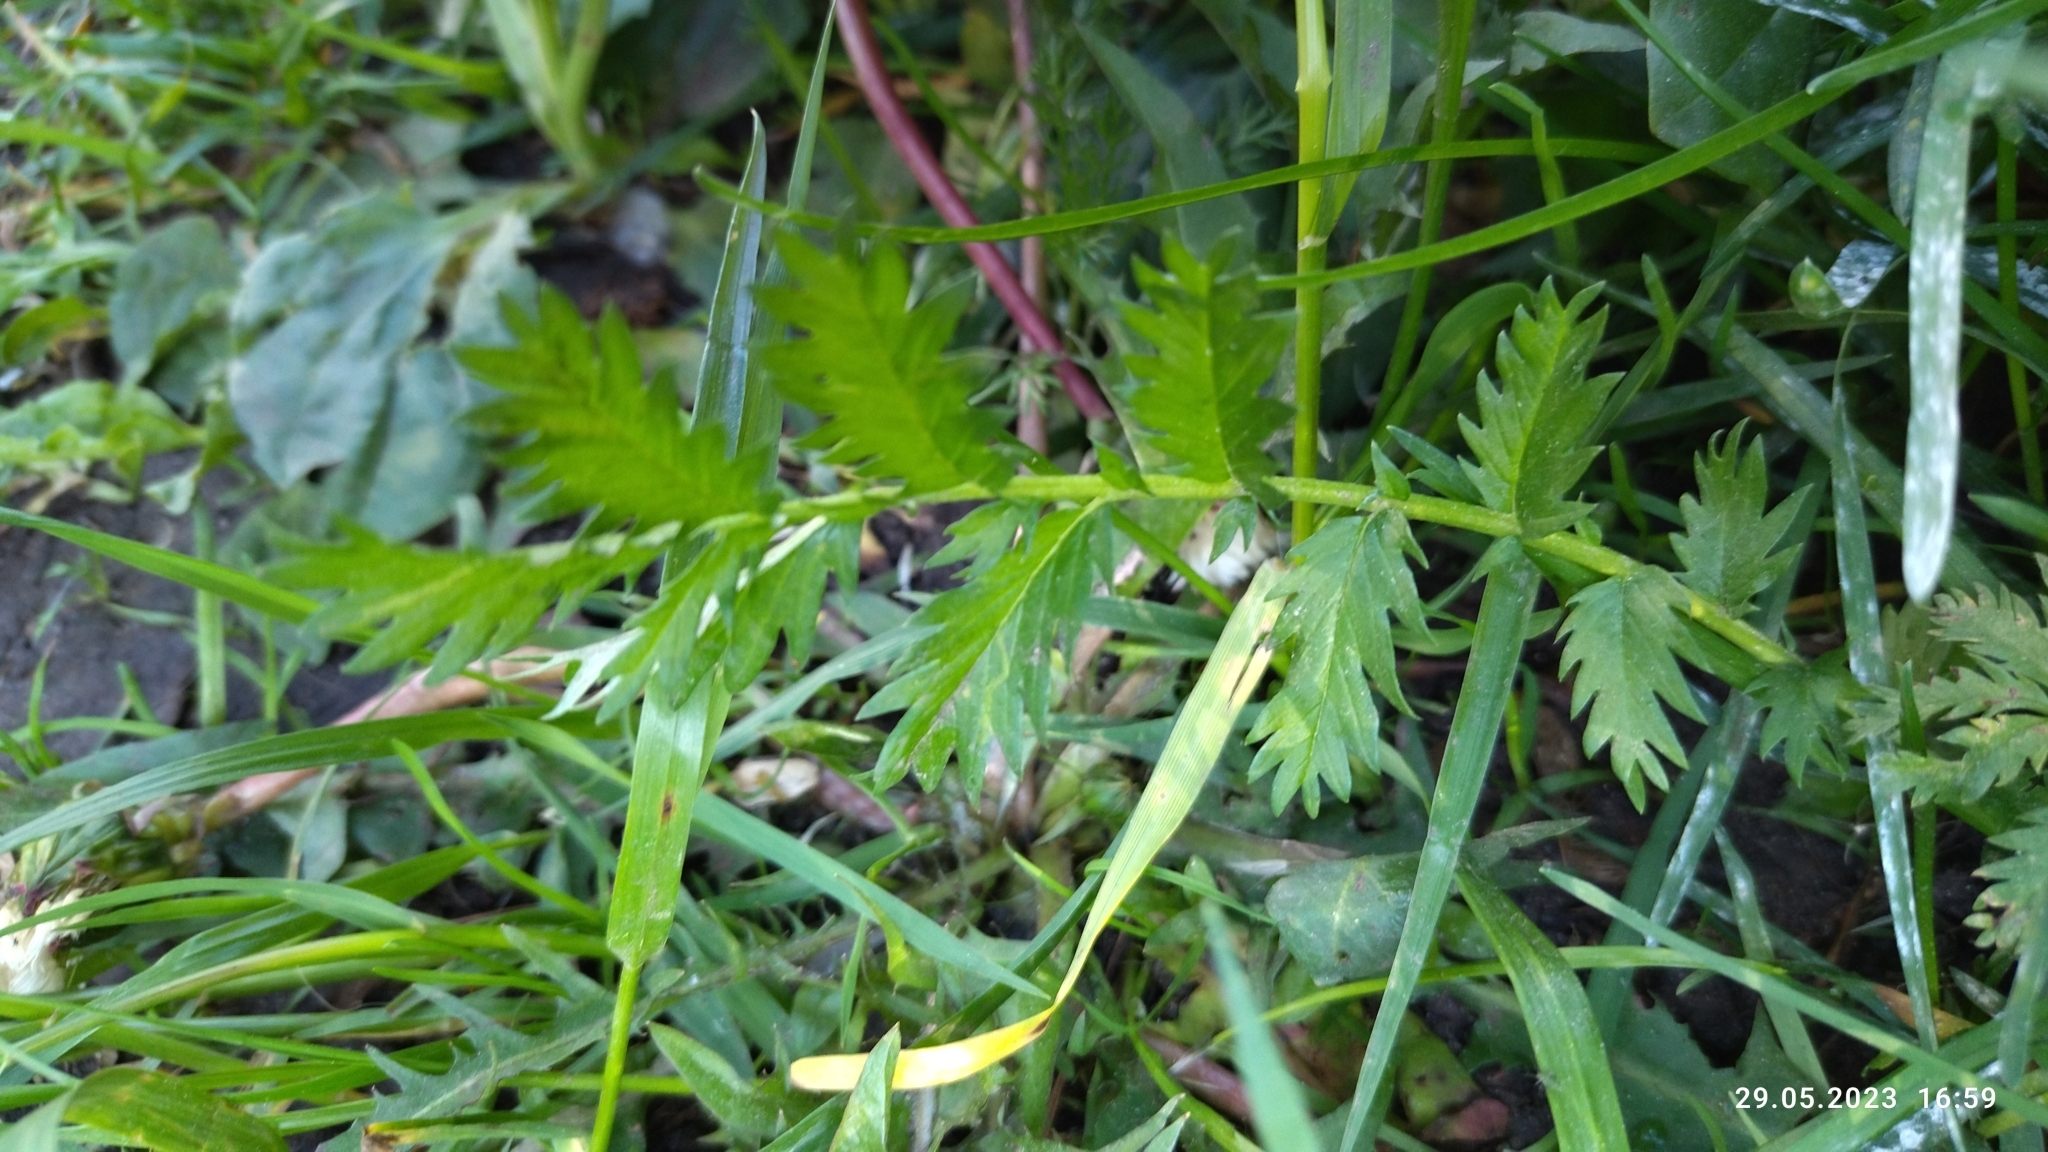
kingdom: Plantae
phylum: Tracheophyta
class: Magnoliopsida
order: Rosales
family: Rosaceae
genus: Argentina
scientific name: Argentina anserina
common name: Common silverweed
